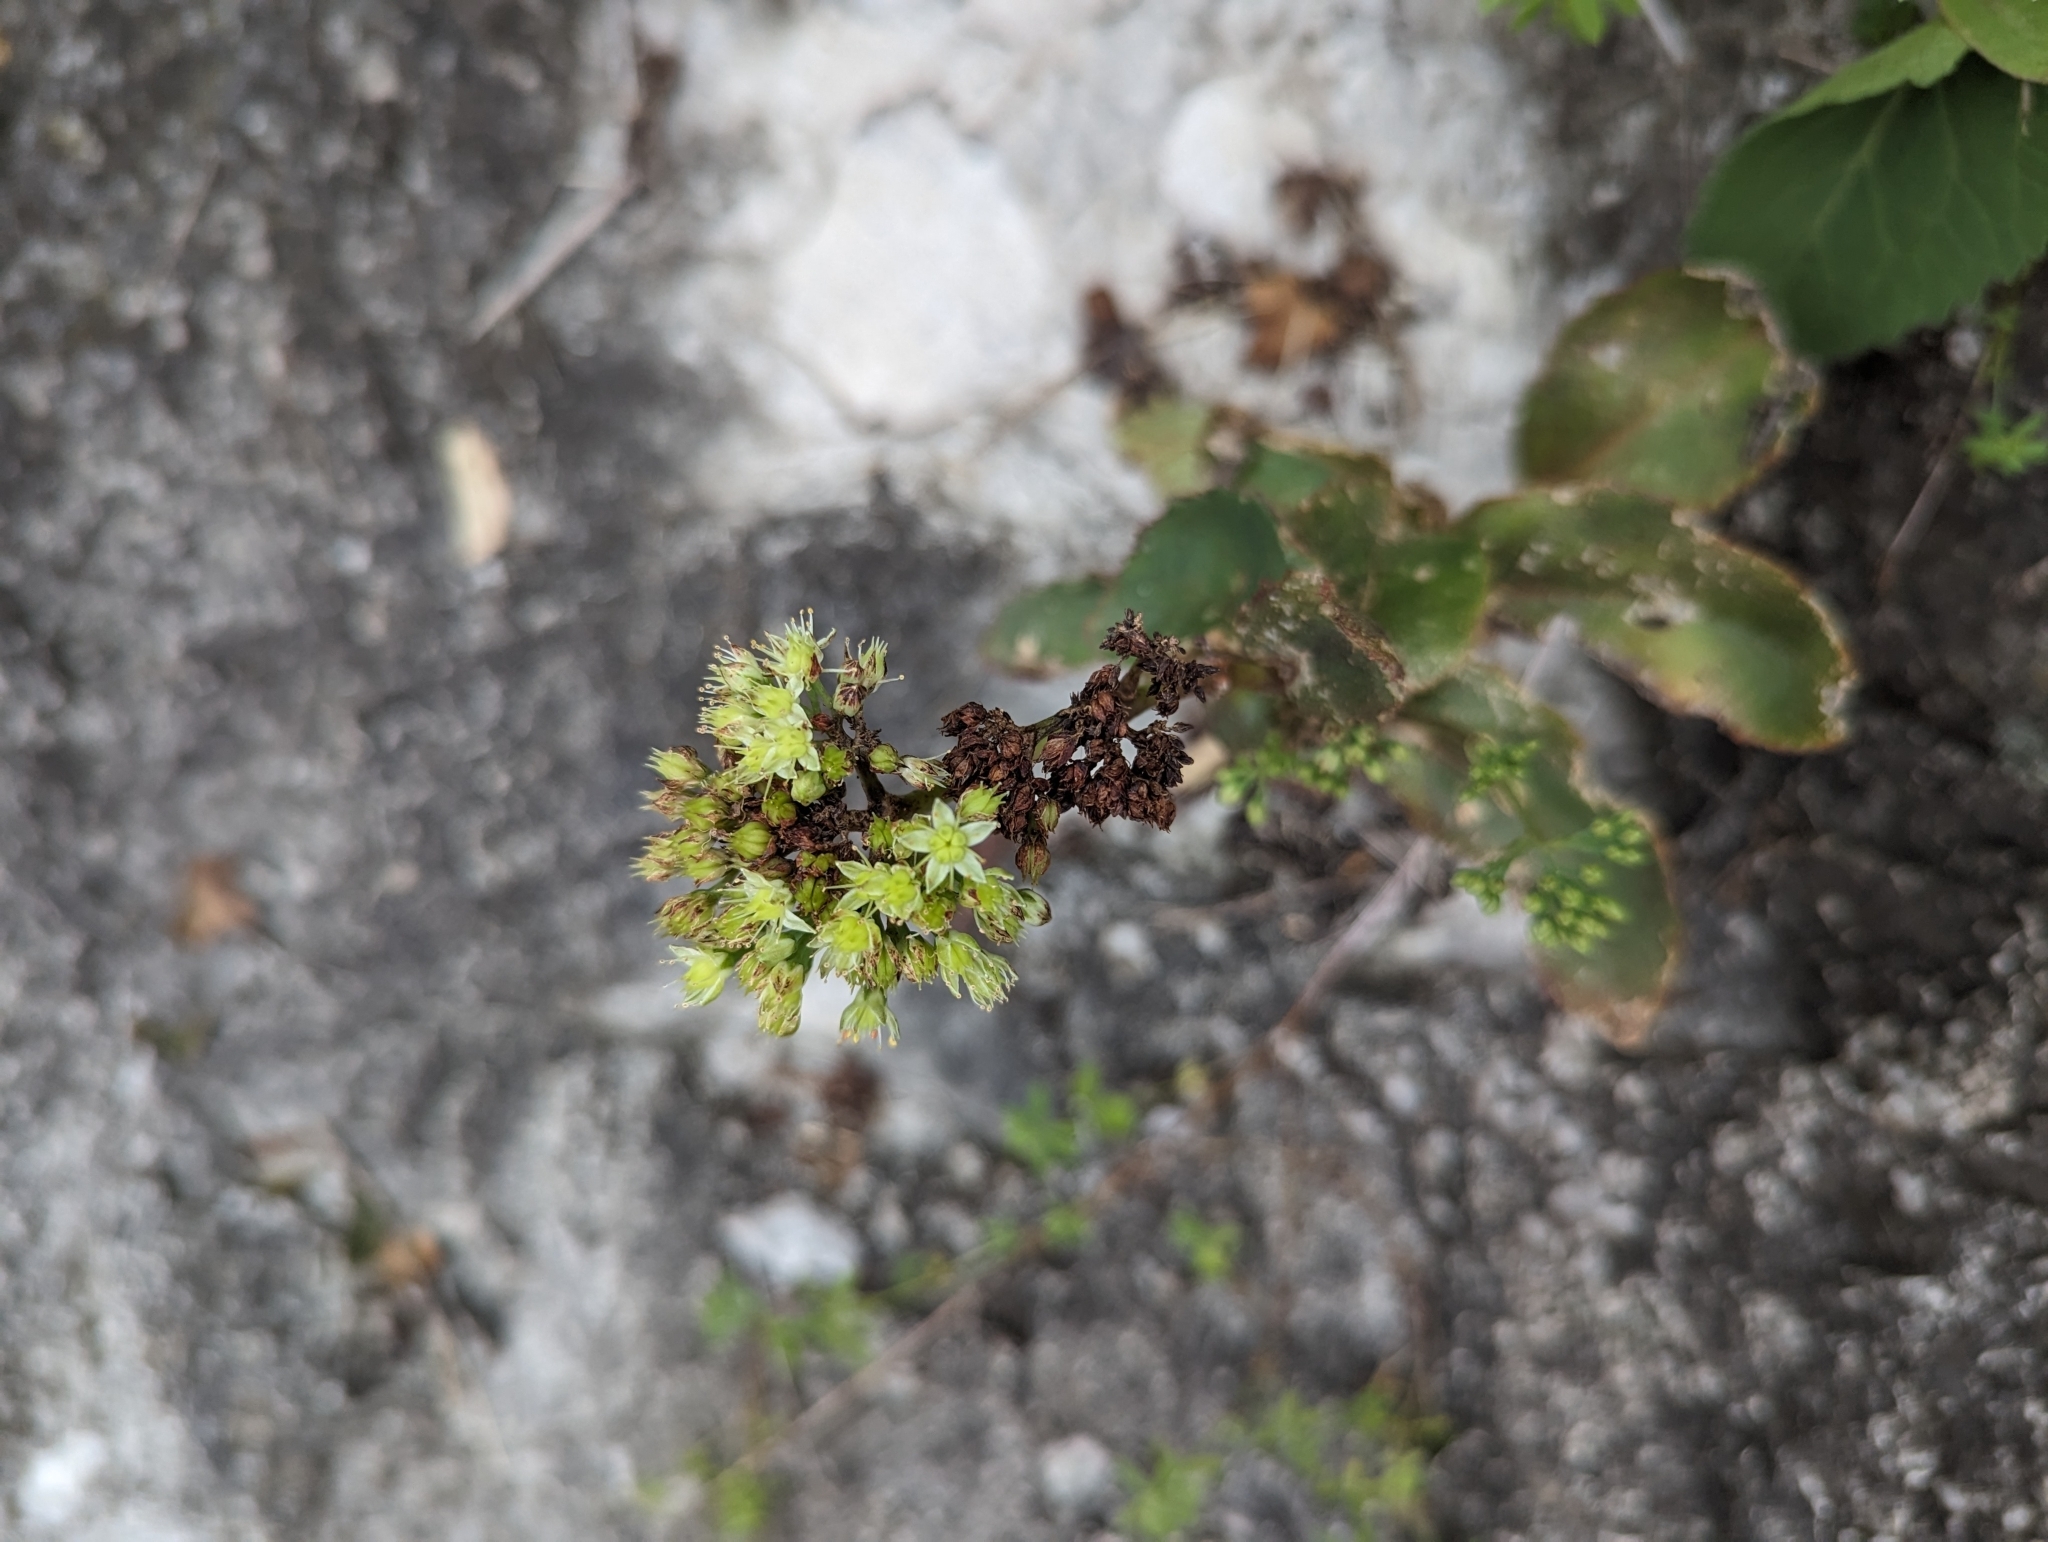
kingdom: Plantae
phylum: Tracheophyta
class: Magnoliopsida
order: Saxifragales
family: Crassulaceae
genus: Hylotelephium
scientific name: Hylotelephium maximum
